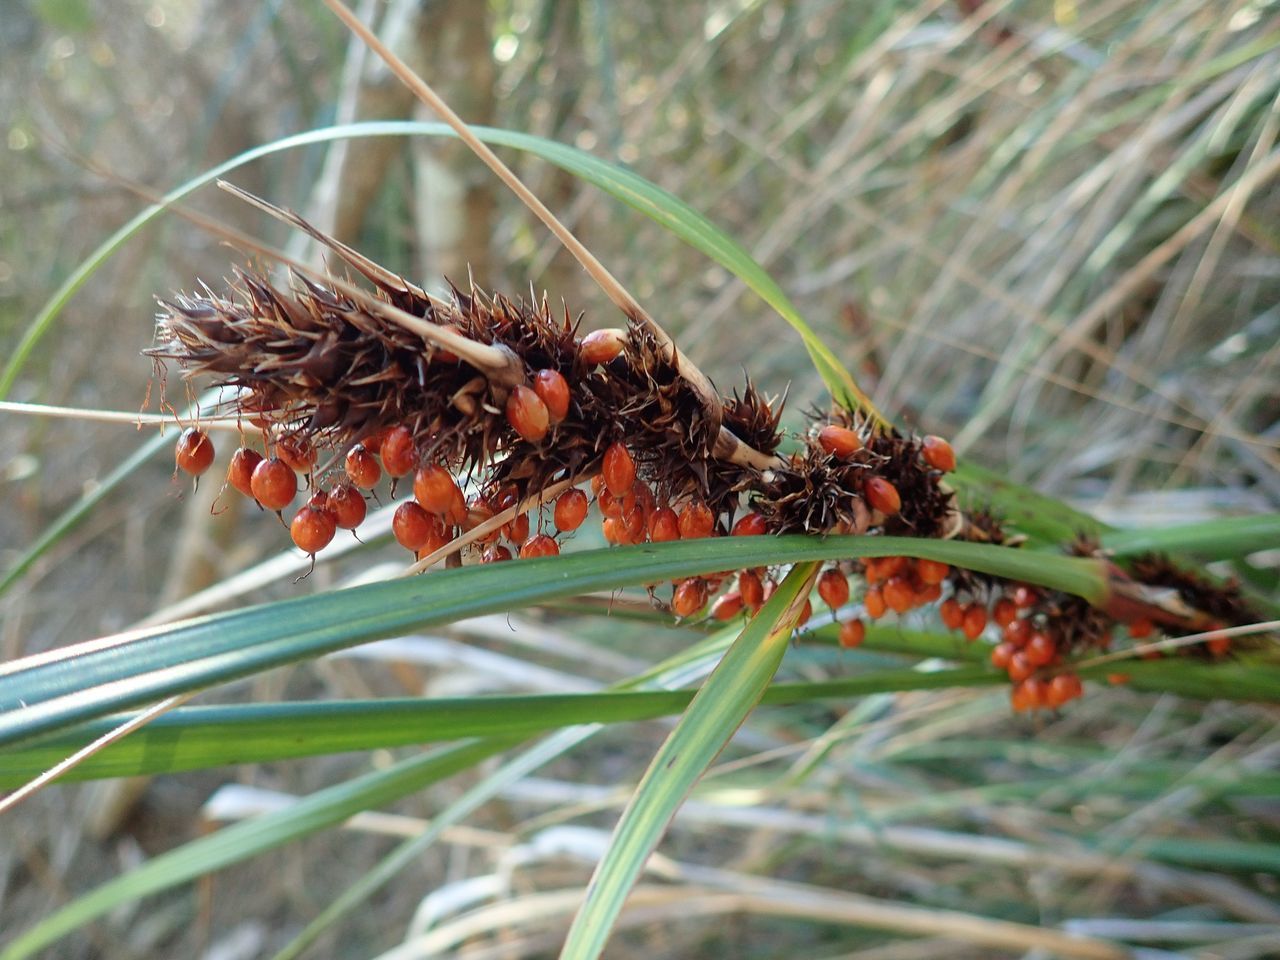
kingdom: Plantae
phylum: Tracheophyta
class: Liliopsida
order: Poales
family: Cyperaceae
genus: Gahnia
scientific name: Gahnia aspera
